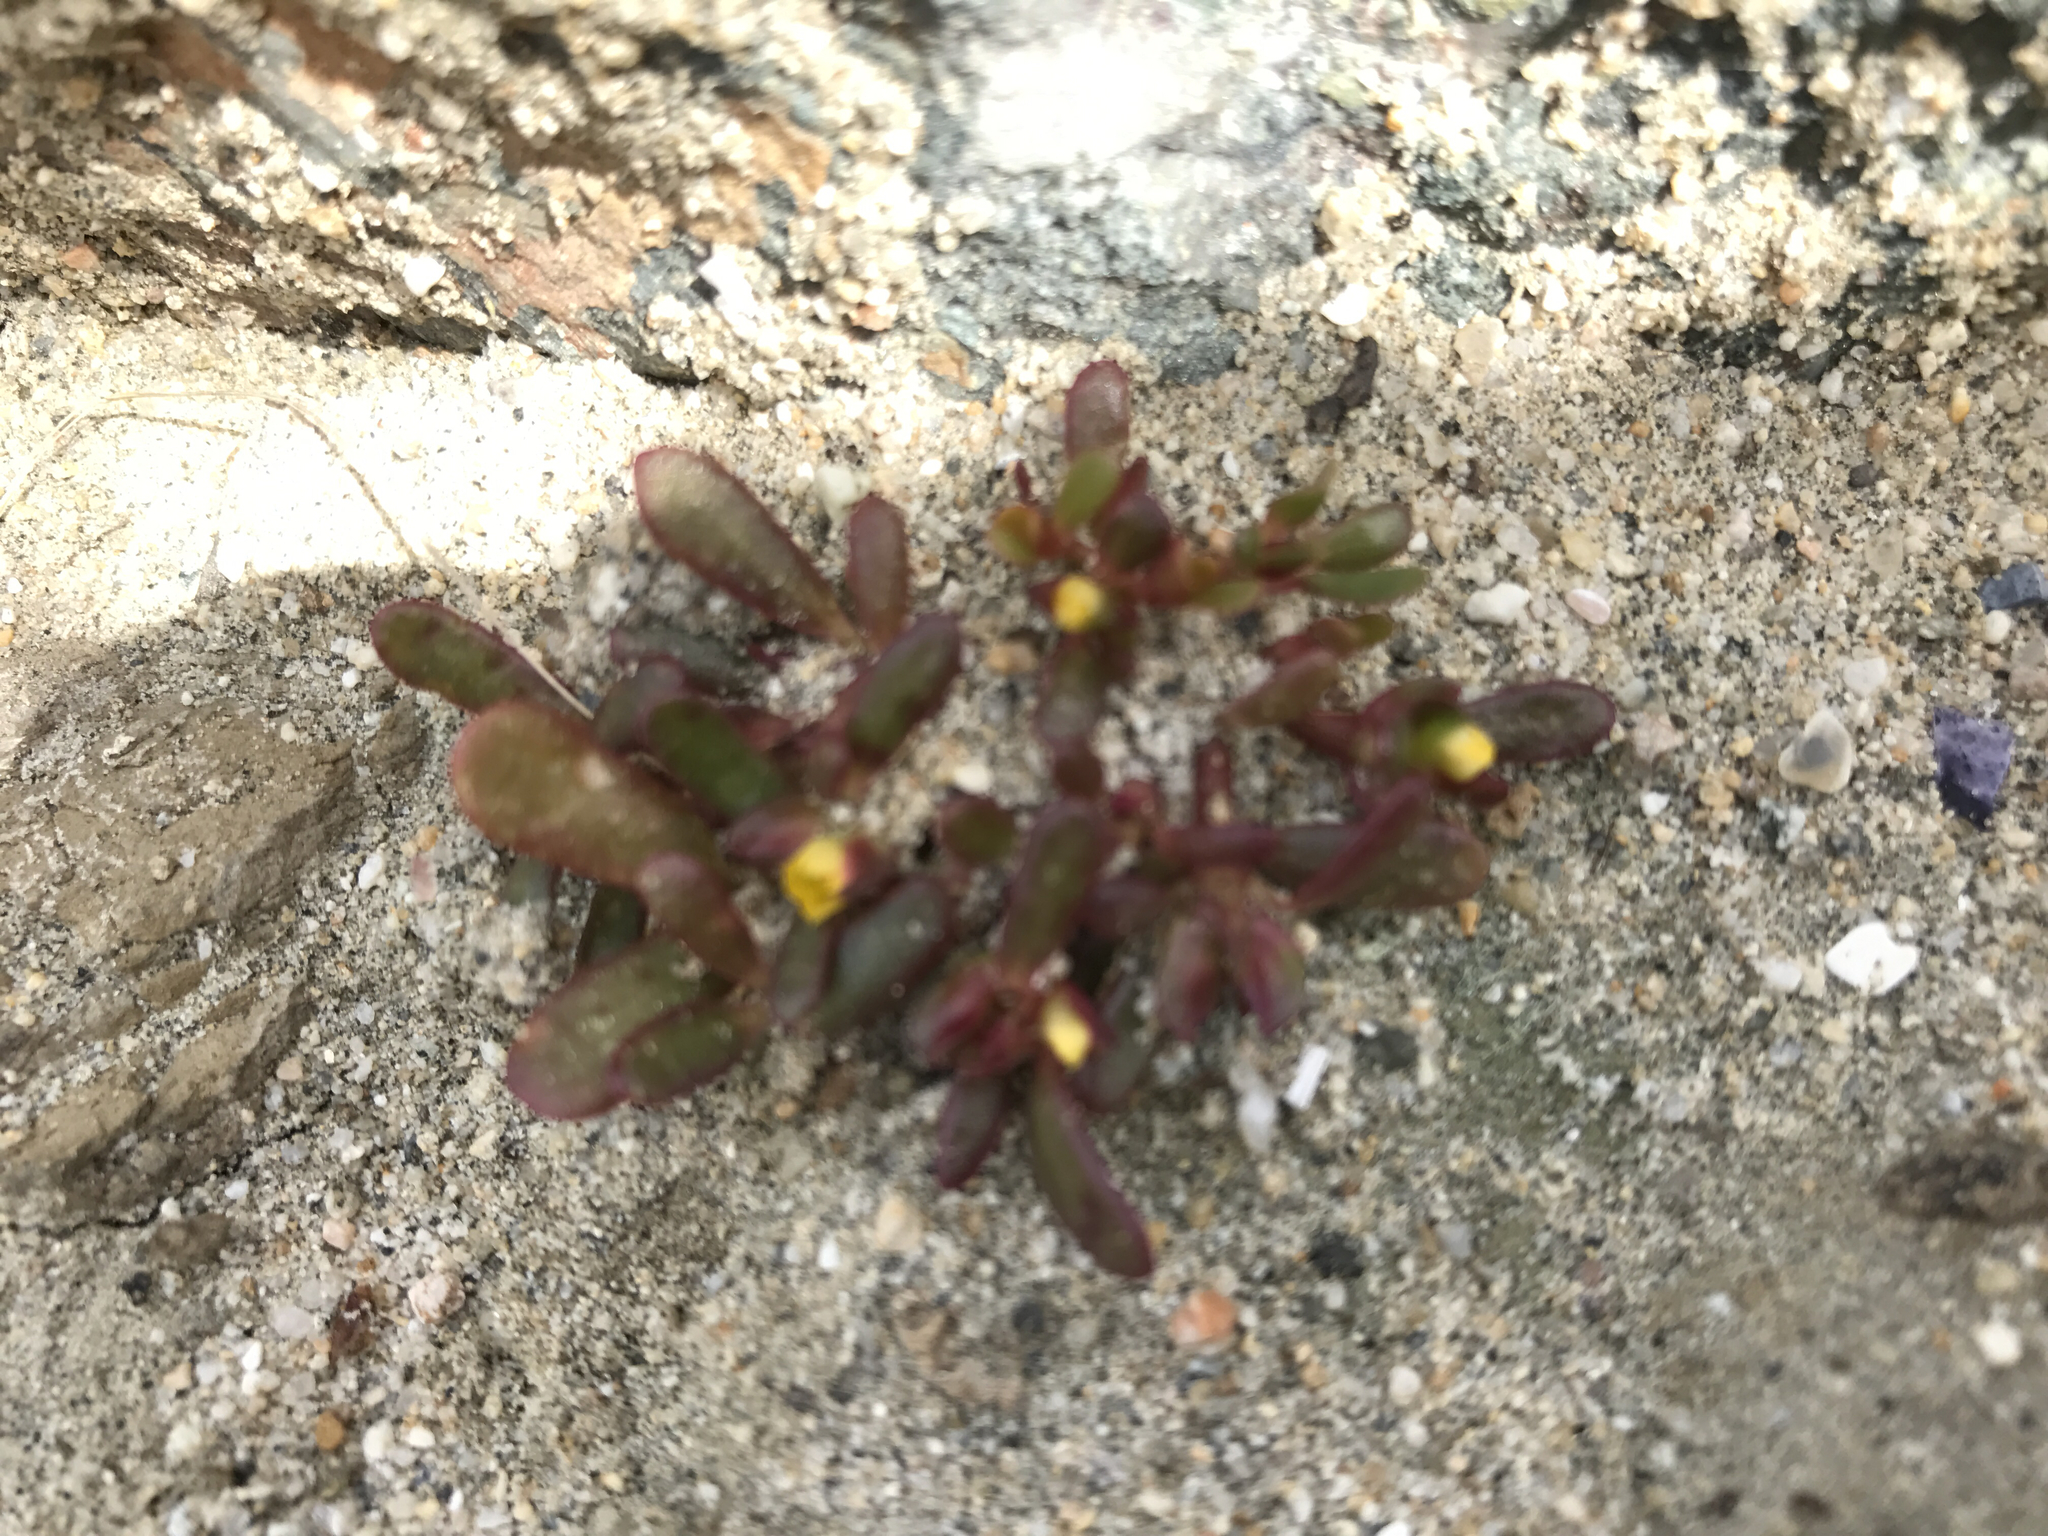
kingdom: Plantae
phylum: Tracheophyta
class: Magnoliopsida
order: Caryophyllales
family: Portulacaceae
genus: Portulaca
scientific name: Portulaca oleracea
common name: Common purslane
